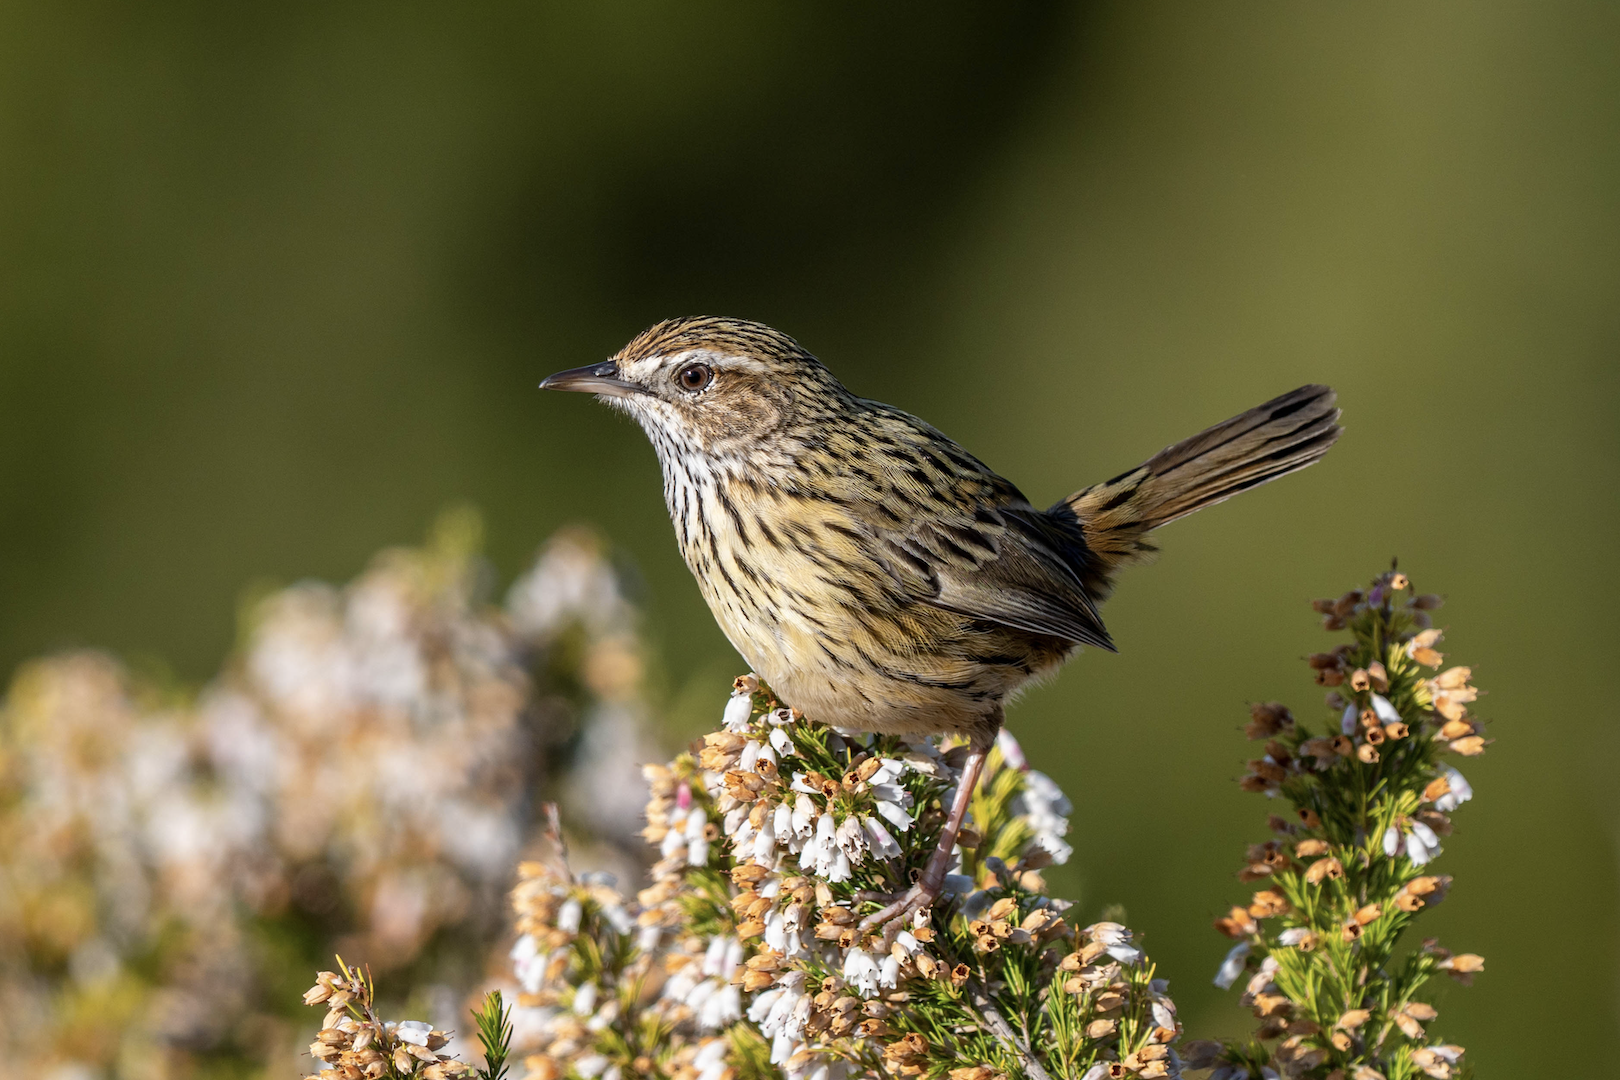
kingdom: Animalia
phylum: Chordata
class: Aves
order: Passeriformes
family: Acanthizidae
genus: Calamanthus
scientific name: Calamanthus fuliginosus
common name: Striated fieldwren
